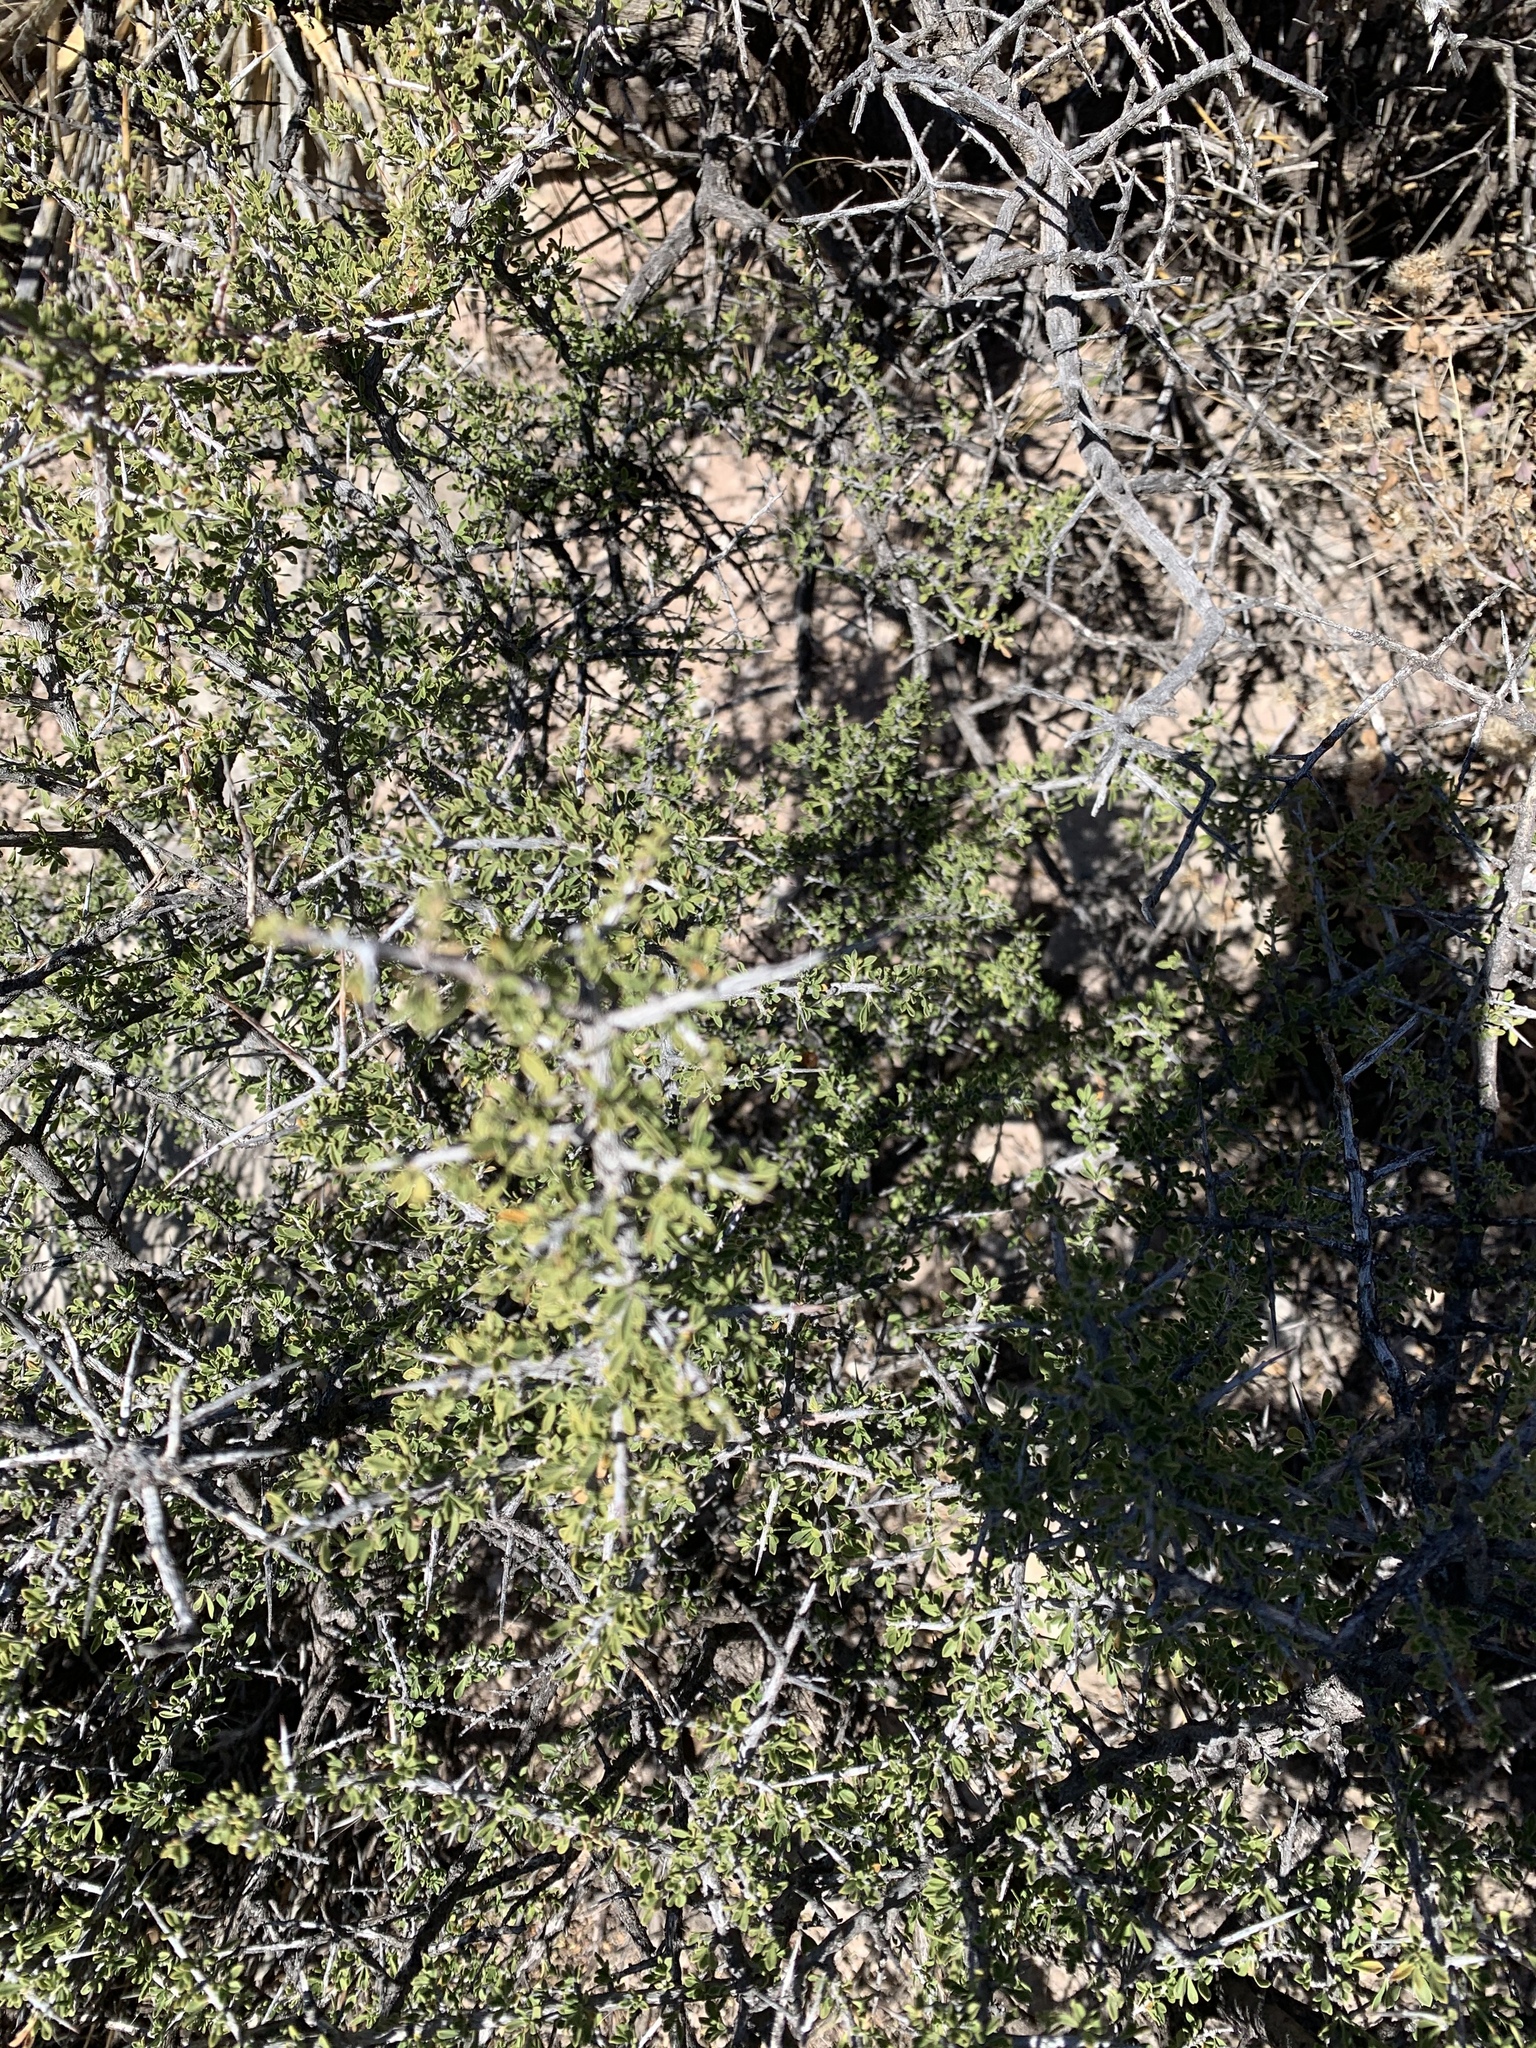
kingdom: Plantae
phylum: Tracheophyta
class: Magnoliopsida
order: Rosales
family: Rhamnaceae
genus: Condalia
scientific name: Condalia warnockii
